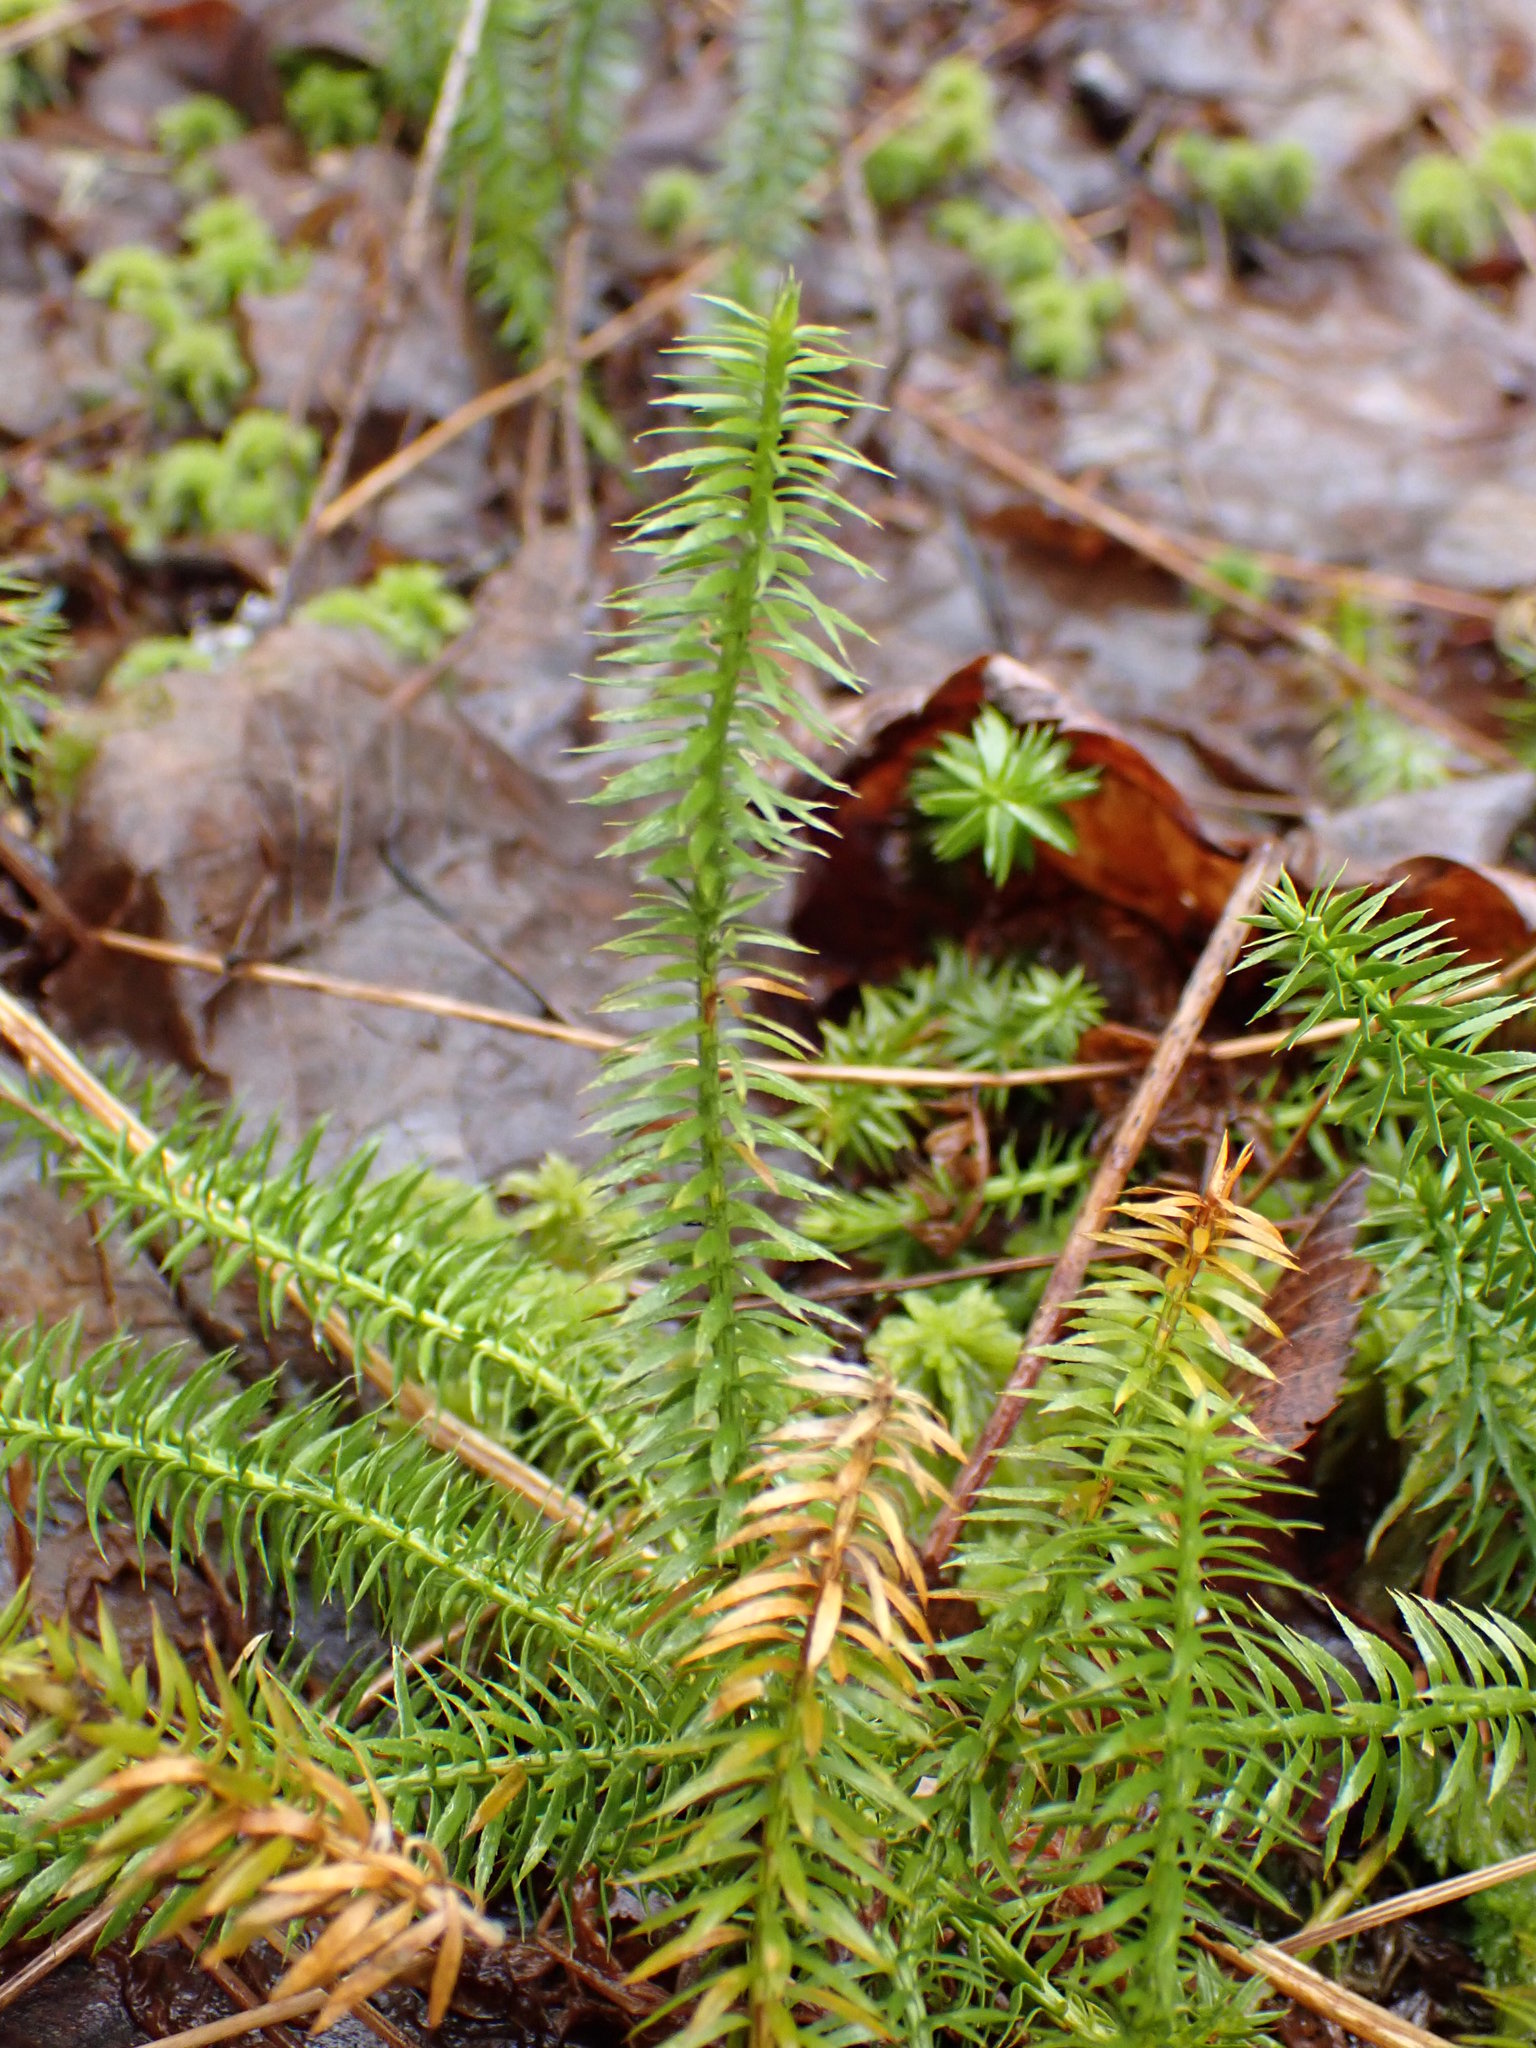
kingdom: Plantae
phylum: Tracheophyta
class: Lycopodiopsida
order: Lycopodiales
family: Lycopodiaceae
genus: Spinulum
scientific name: Spinulum annotinum
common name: Interrupted club-moss
